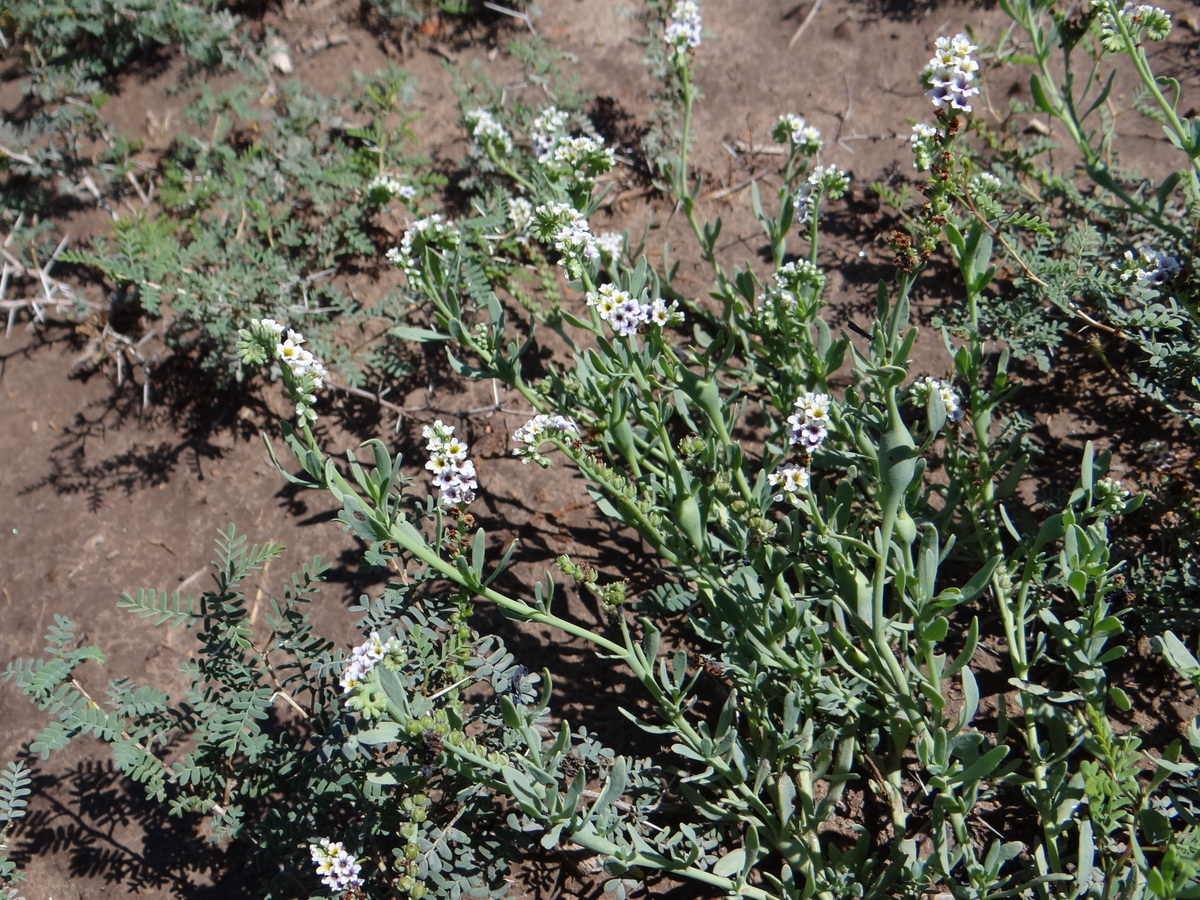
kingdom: Plantae
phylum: Tracheophyta
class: Magnoliopsida
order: Boraginales
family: Heliotropiaceae
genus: Heliotropium
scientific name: Heliotropium curassavicum
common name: Seaside heliotrope
